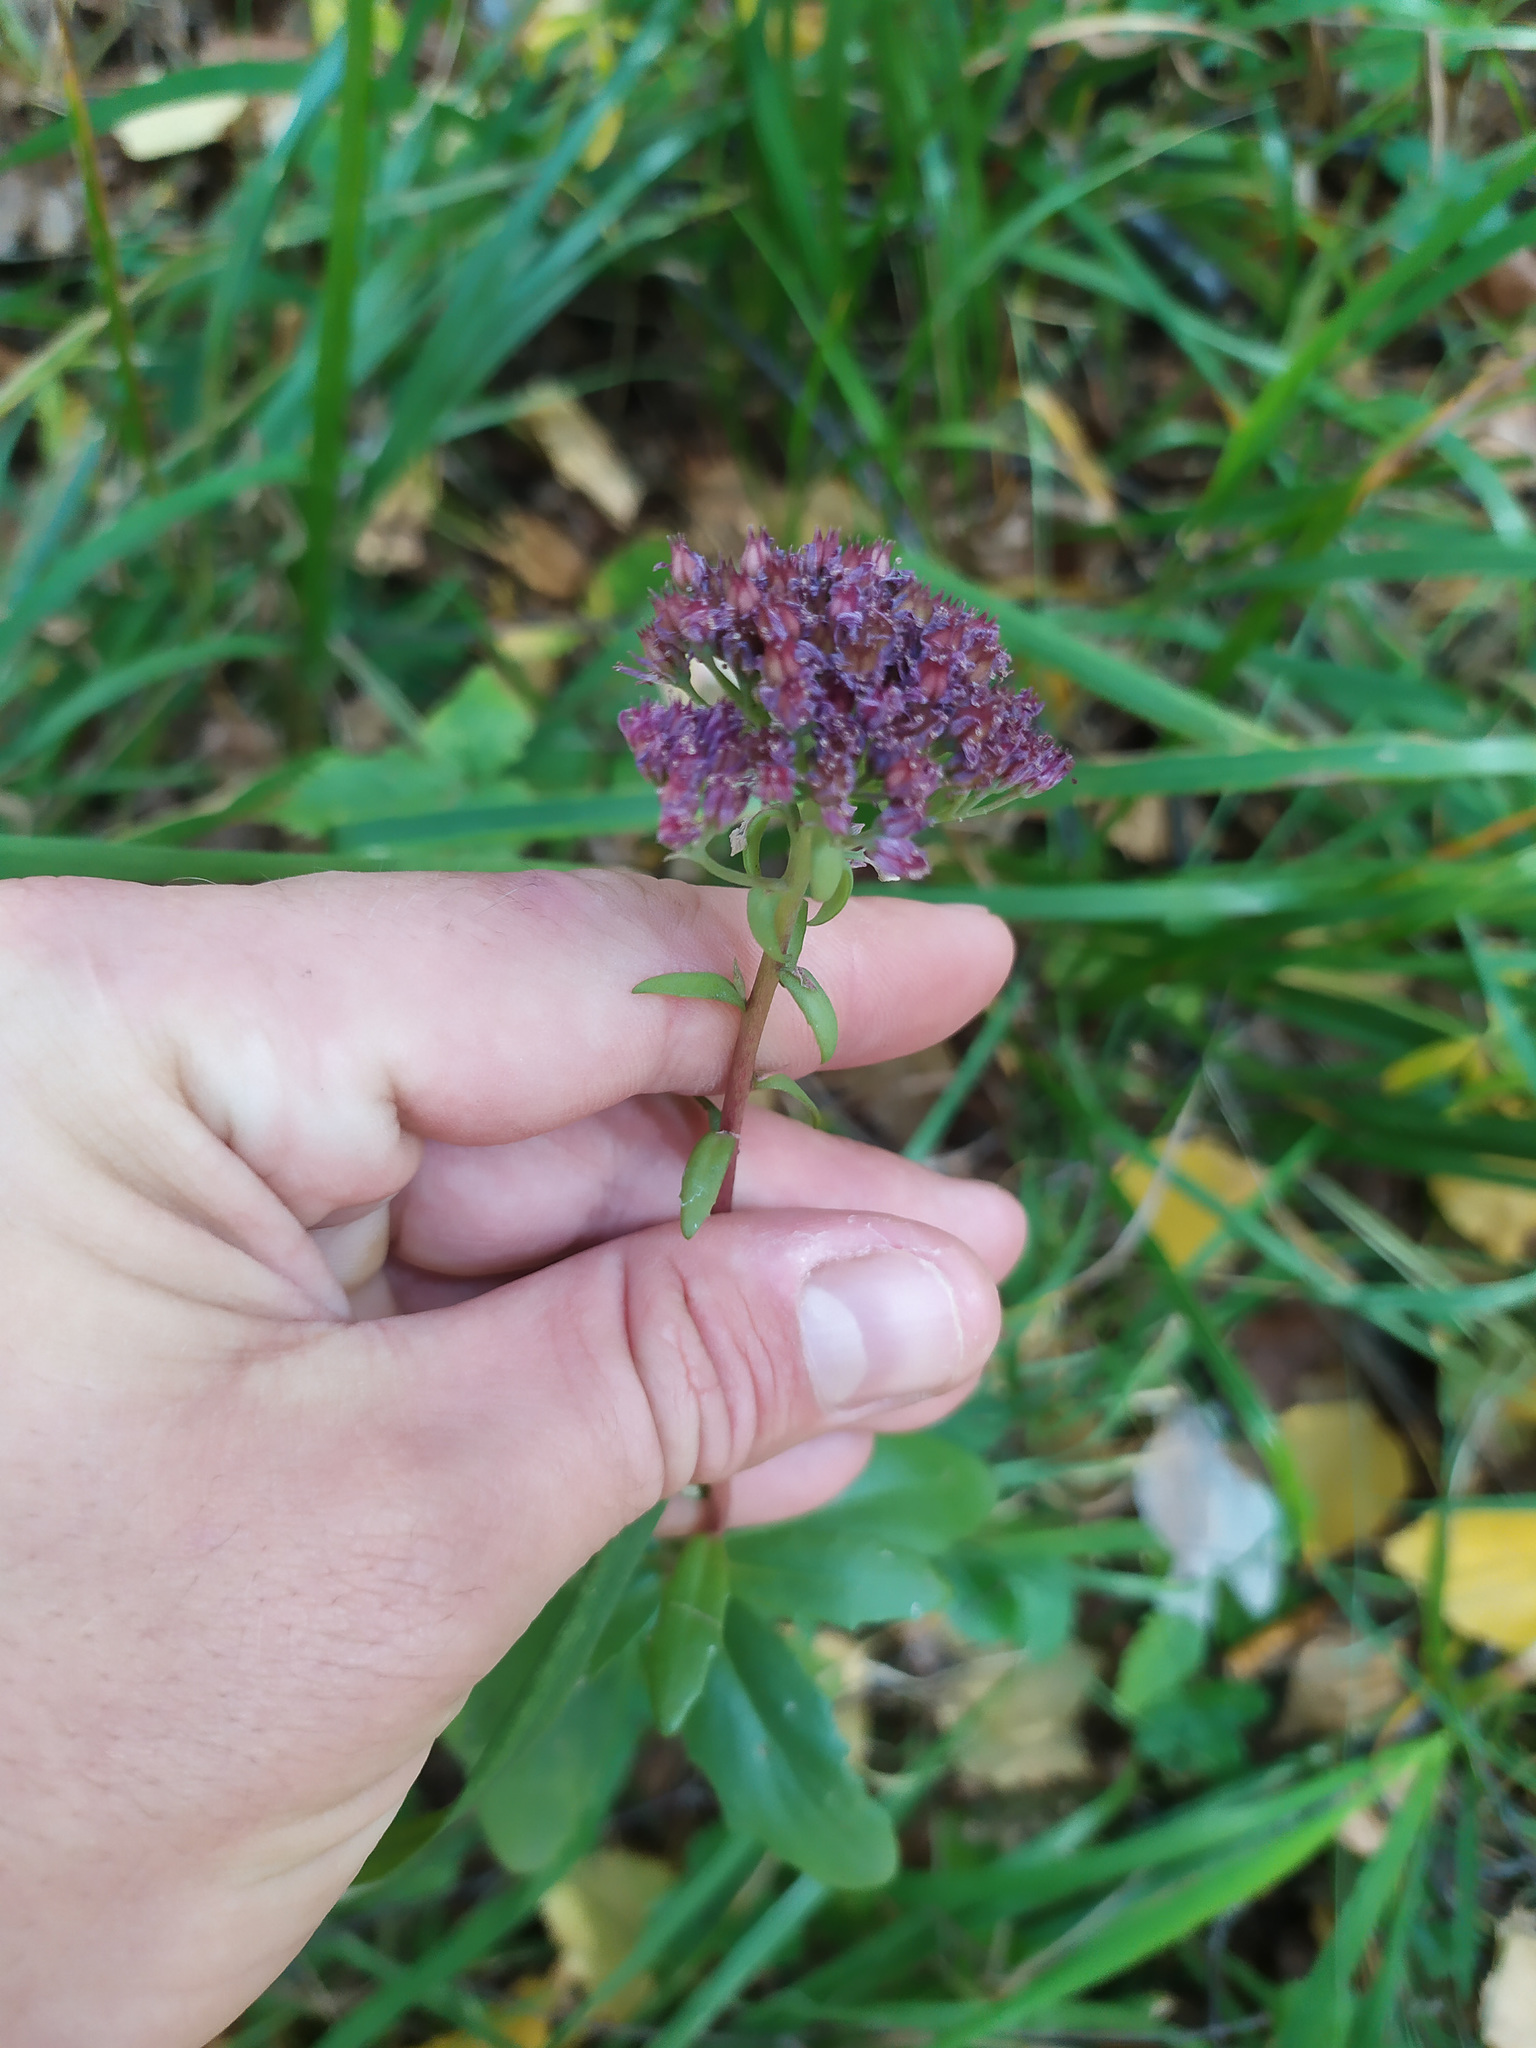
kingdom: Plantae
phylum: Tracheophyta
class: Magnoliopsida
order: Saxifragales
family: Crassulaceae
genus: Hylotelephium
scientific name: Hylotelephium telephium
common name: Live-forever
